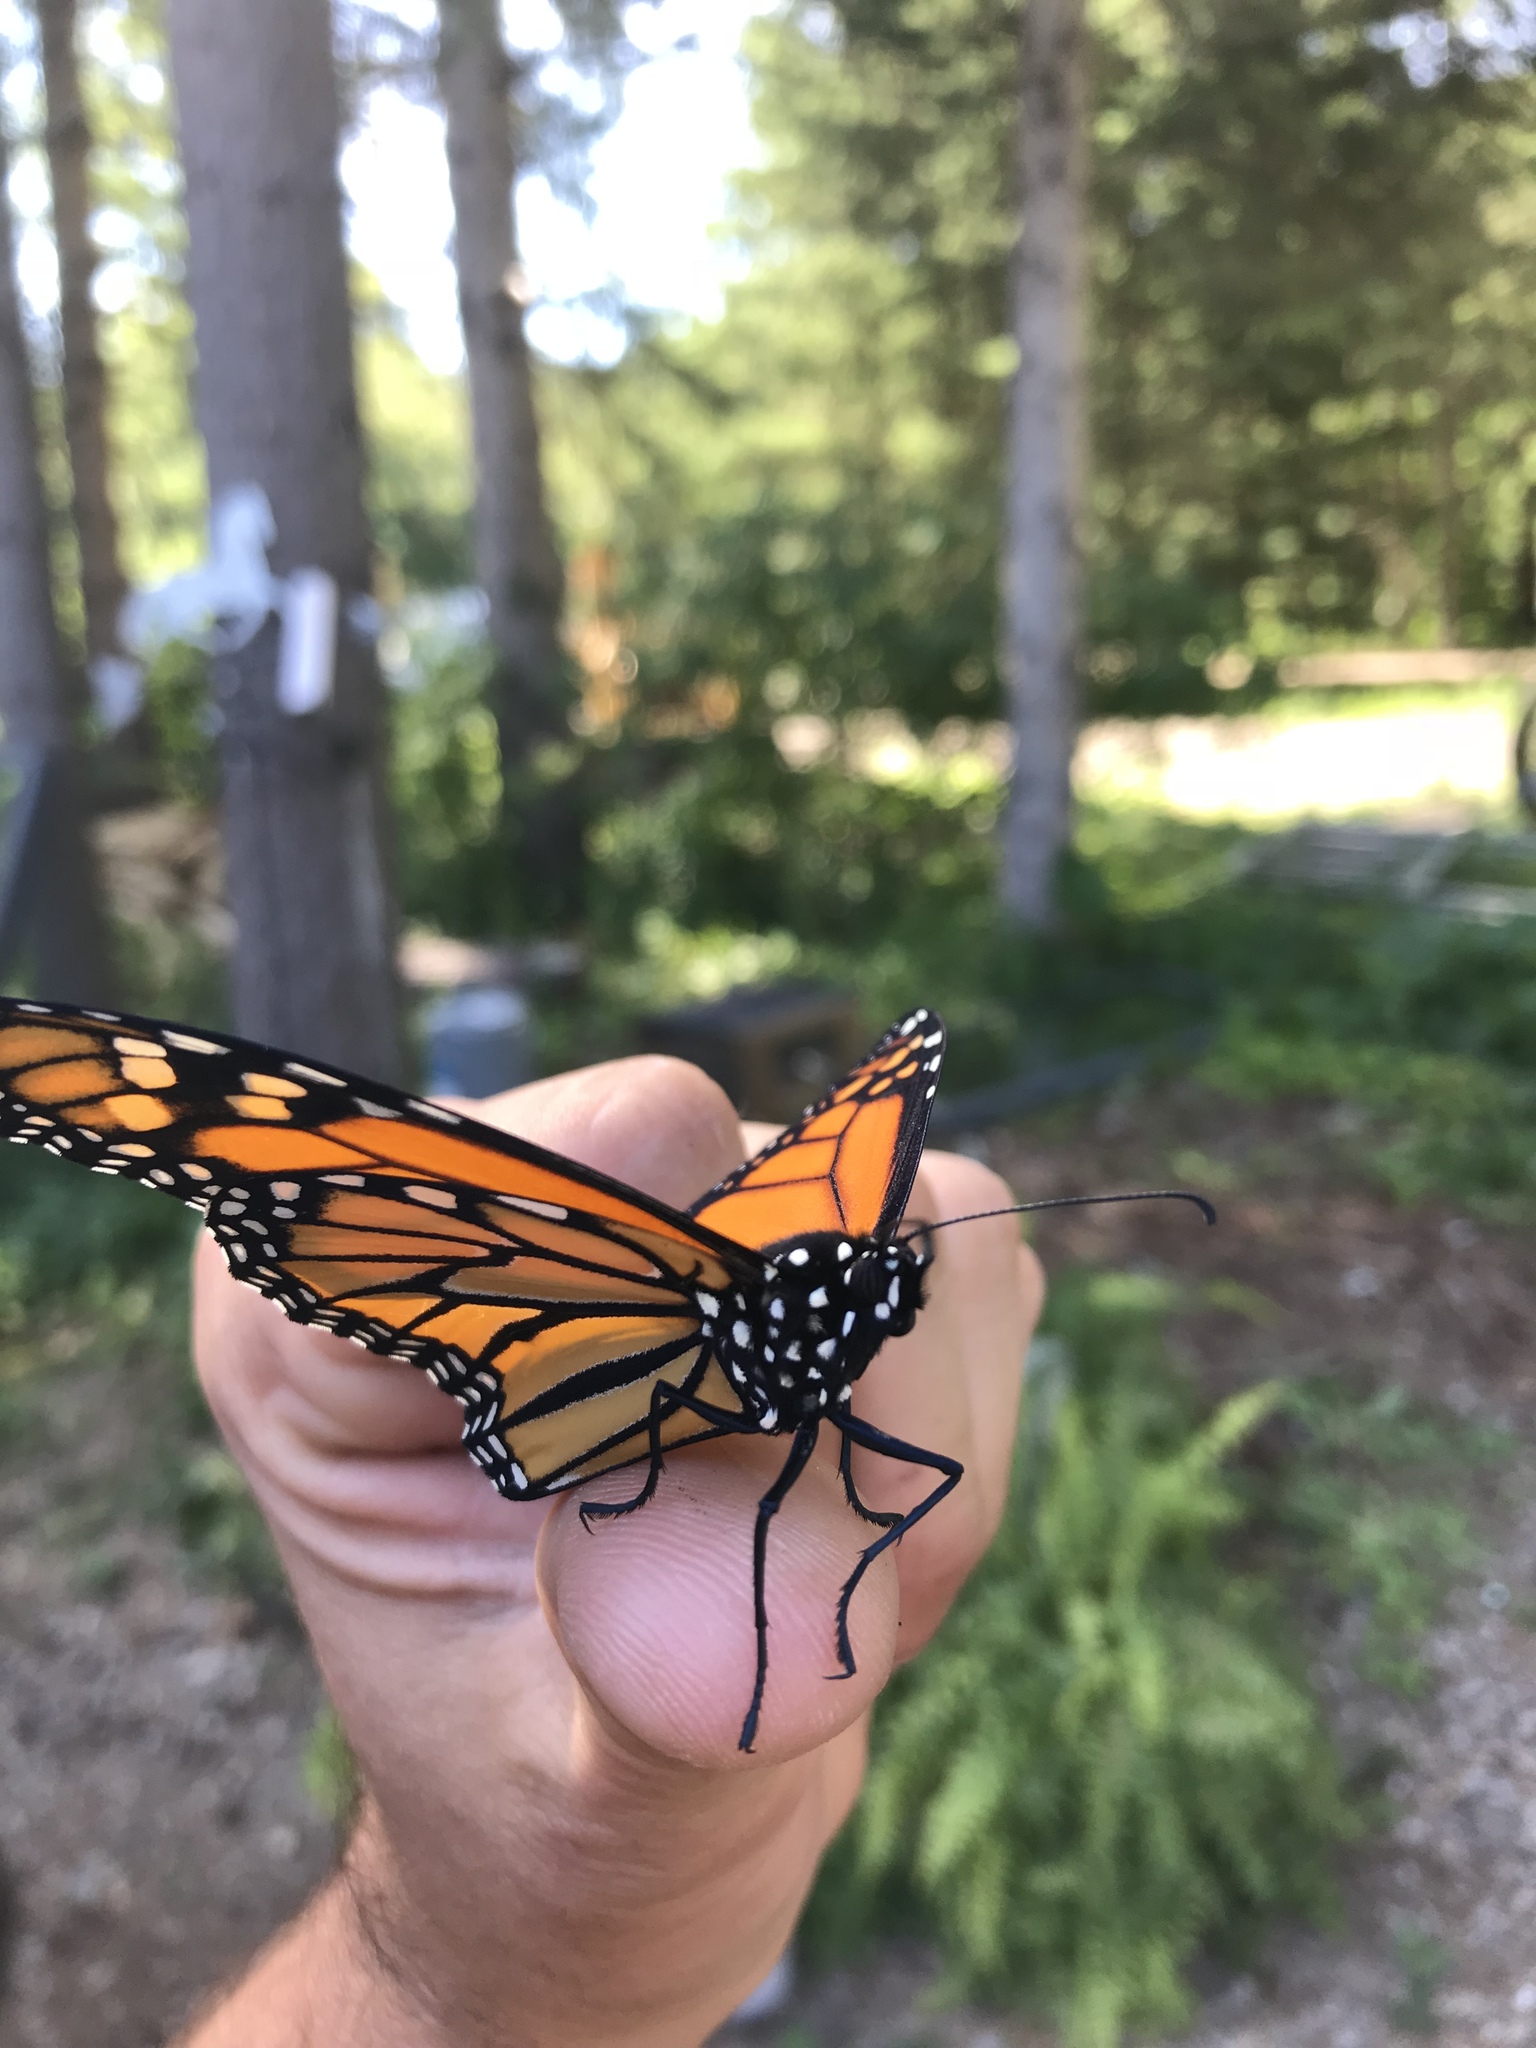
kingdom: Animalia
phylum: Arthropoda
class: Insecta
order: Lepidoptera
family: Nymphalidae
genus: Danaus
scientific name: Danaus plexippus
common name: Monarch
